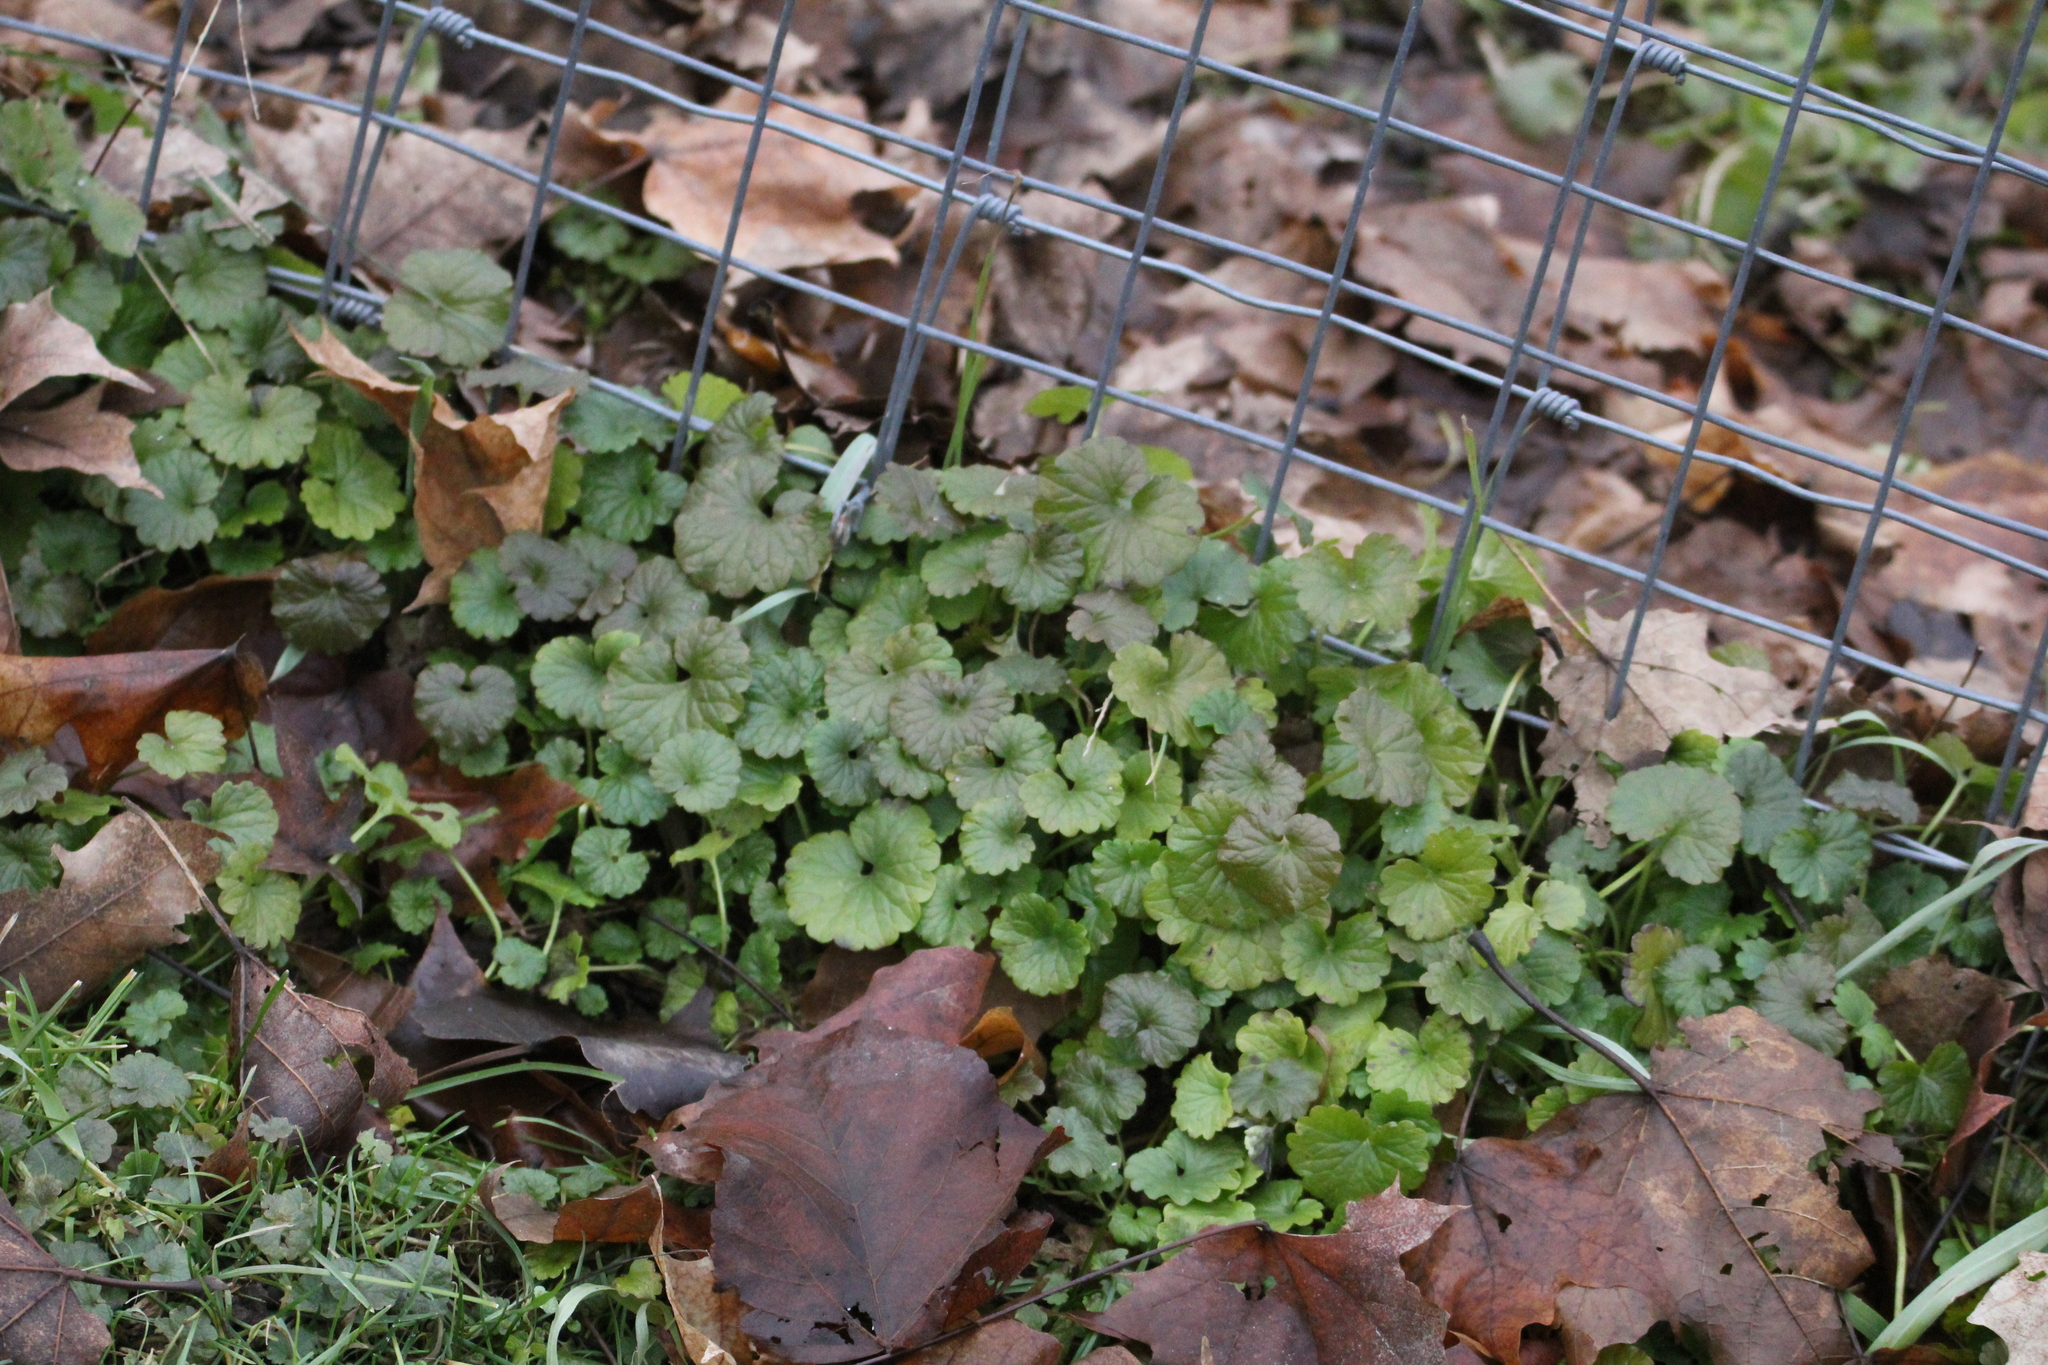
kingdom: Plantae
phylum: Tracheophyta
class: Magnoliopsida
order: Lamiales
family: Lamiaceae
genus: Glechoma
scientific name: Glechoma hederacea
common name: Ground ivy
